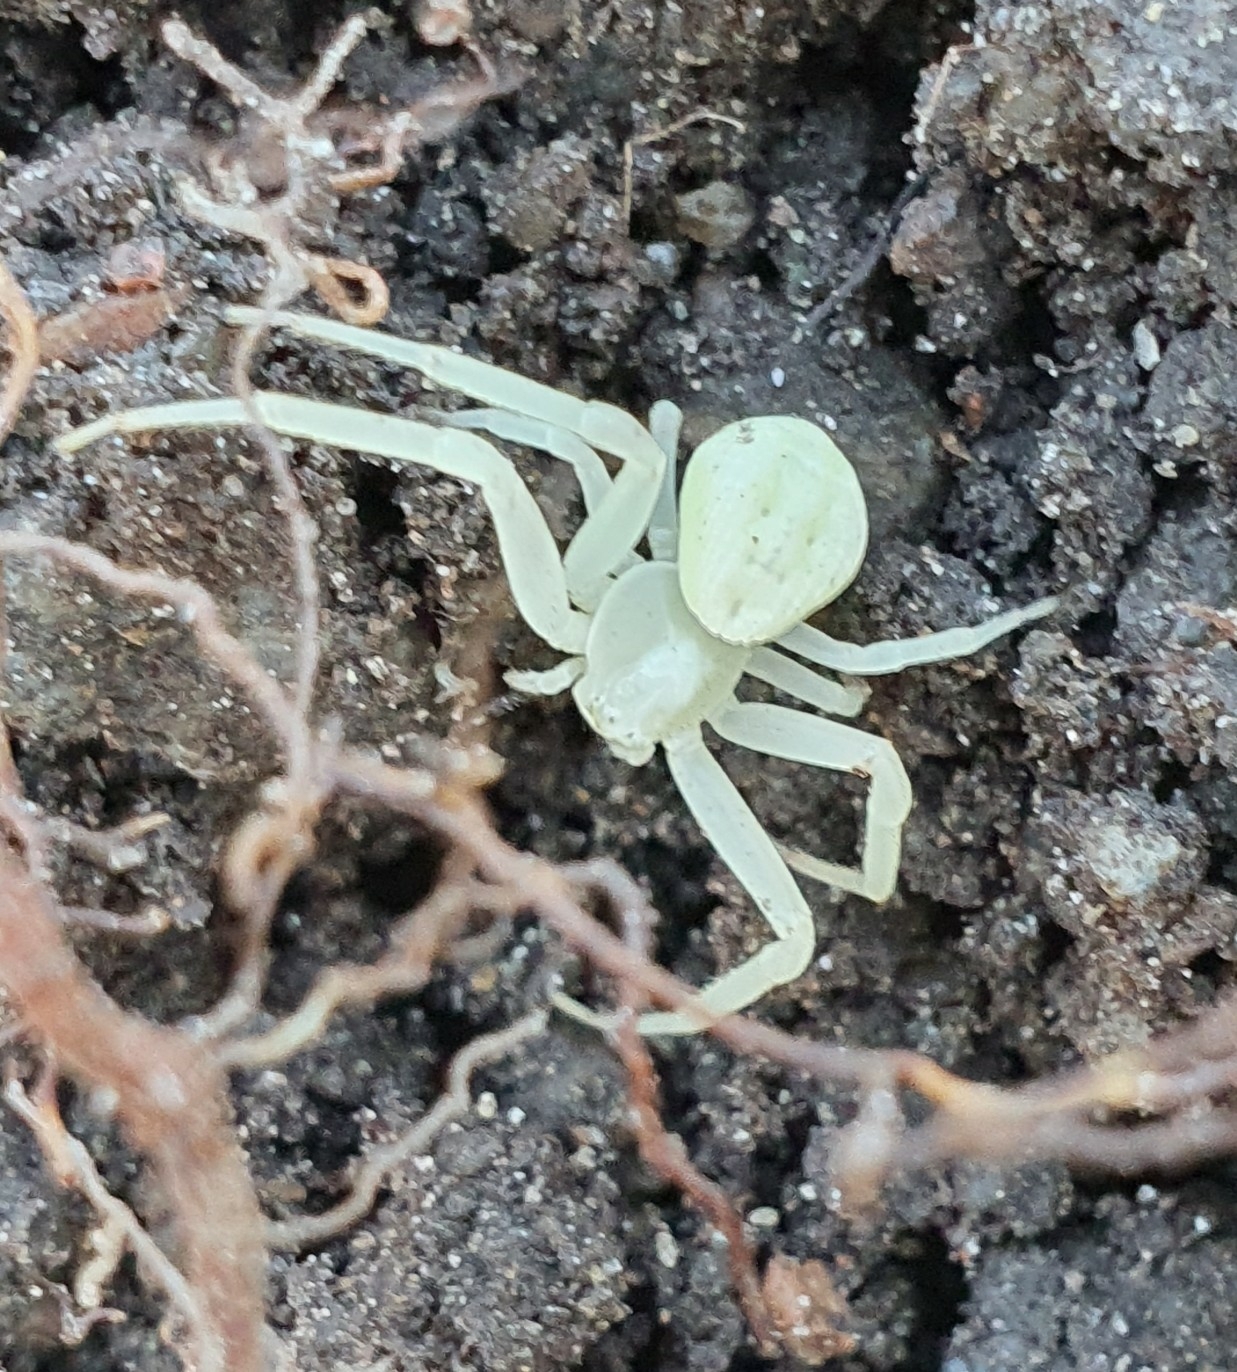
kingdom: Animalia
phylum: Arthropoda
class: Arachnida
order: Araneae
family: Thomisidae
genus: Misumena
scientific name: Misumena vatia
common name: Goldenrod crab spider
